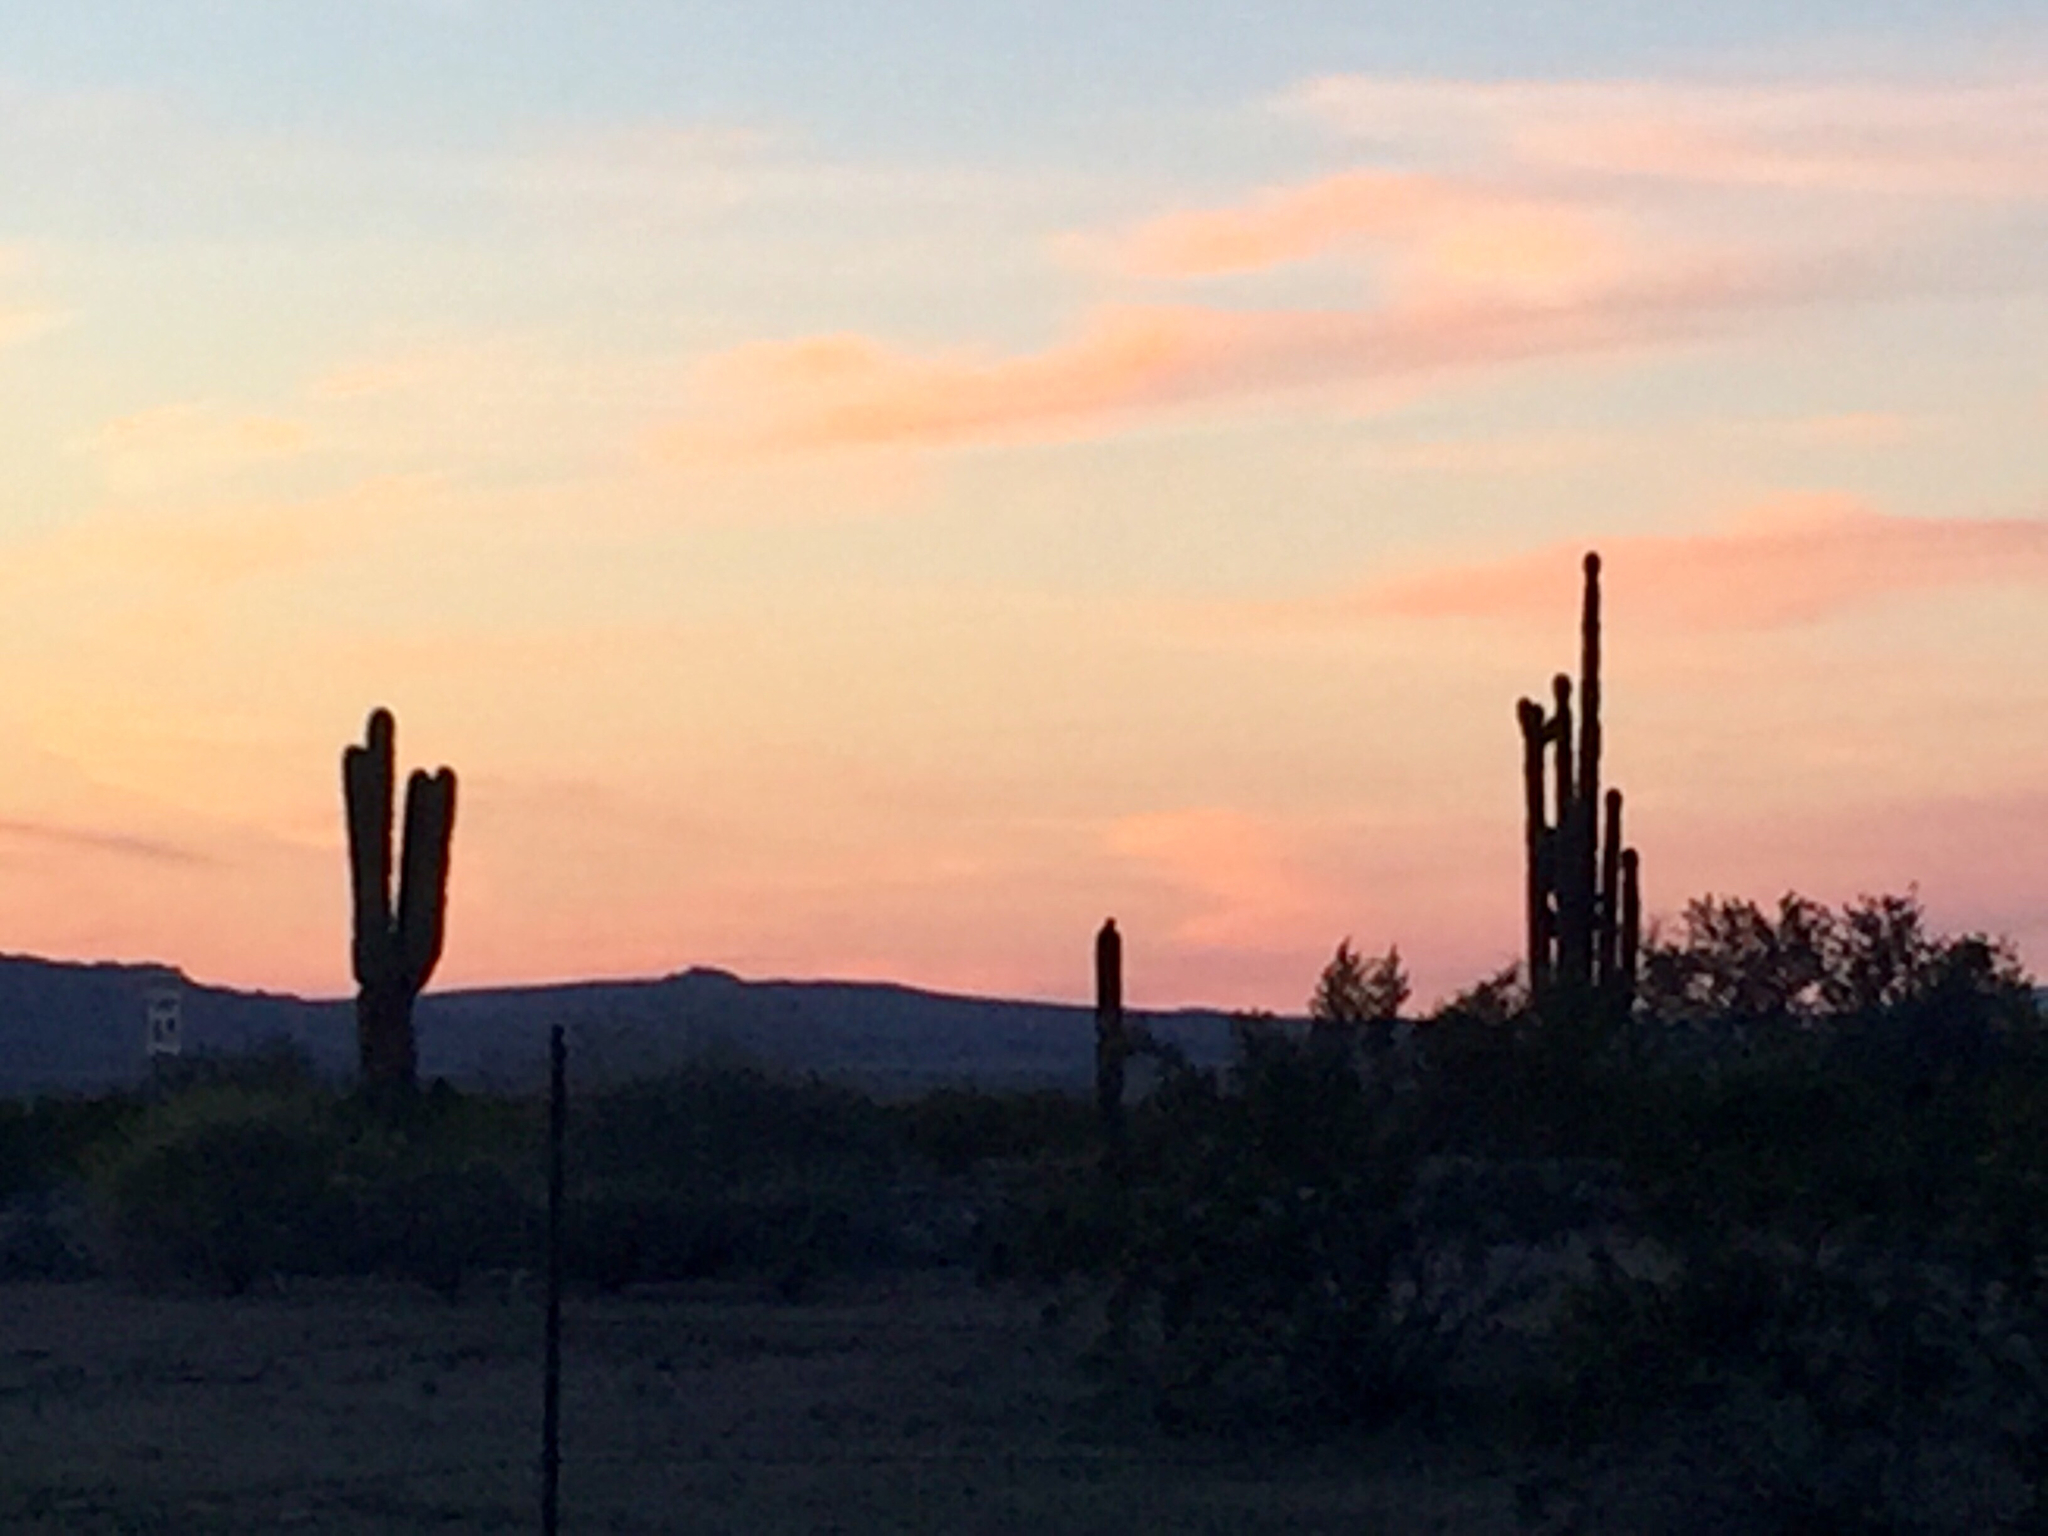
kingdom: Plantae
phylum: Tracheophyta
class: Magnoliopsida
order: Caryophyllales
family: Cactaceae
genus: Carnegiea
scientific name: Carnegiea gigantea
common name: Saguaro
